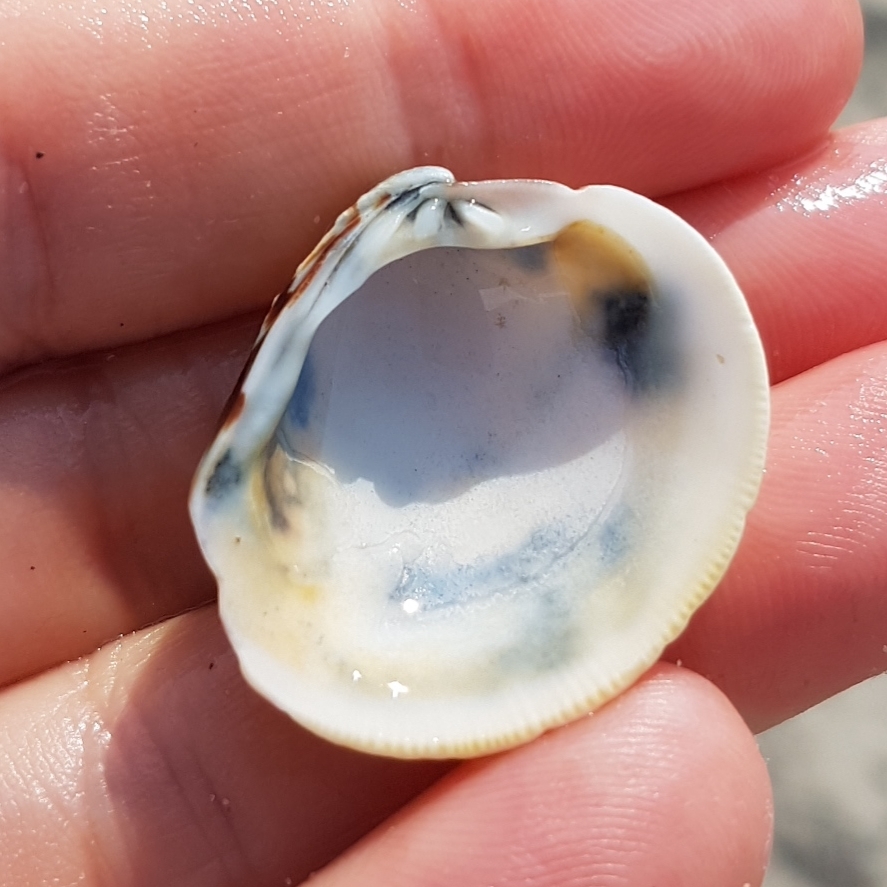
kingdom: Animalia
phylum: Mollusca
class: Bivalvia
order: Venerida
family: Veneridae
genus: Venus
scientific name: Venus verrucosa
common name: Warty venus
